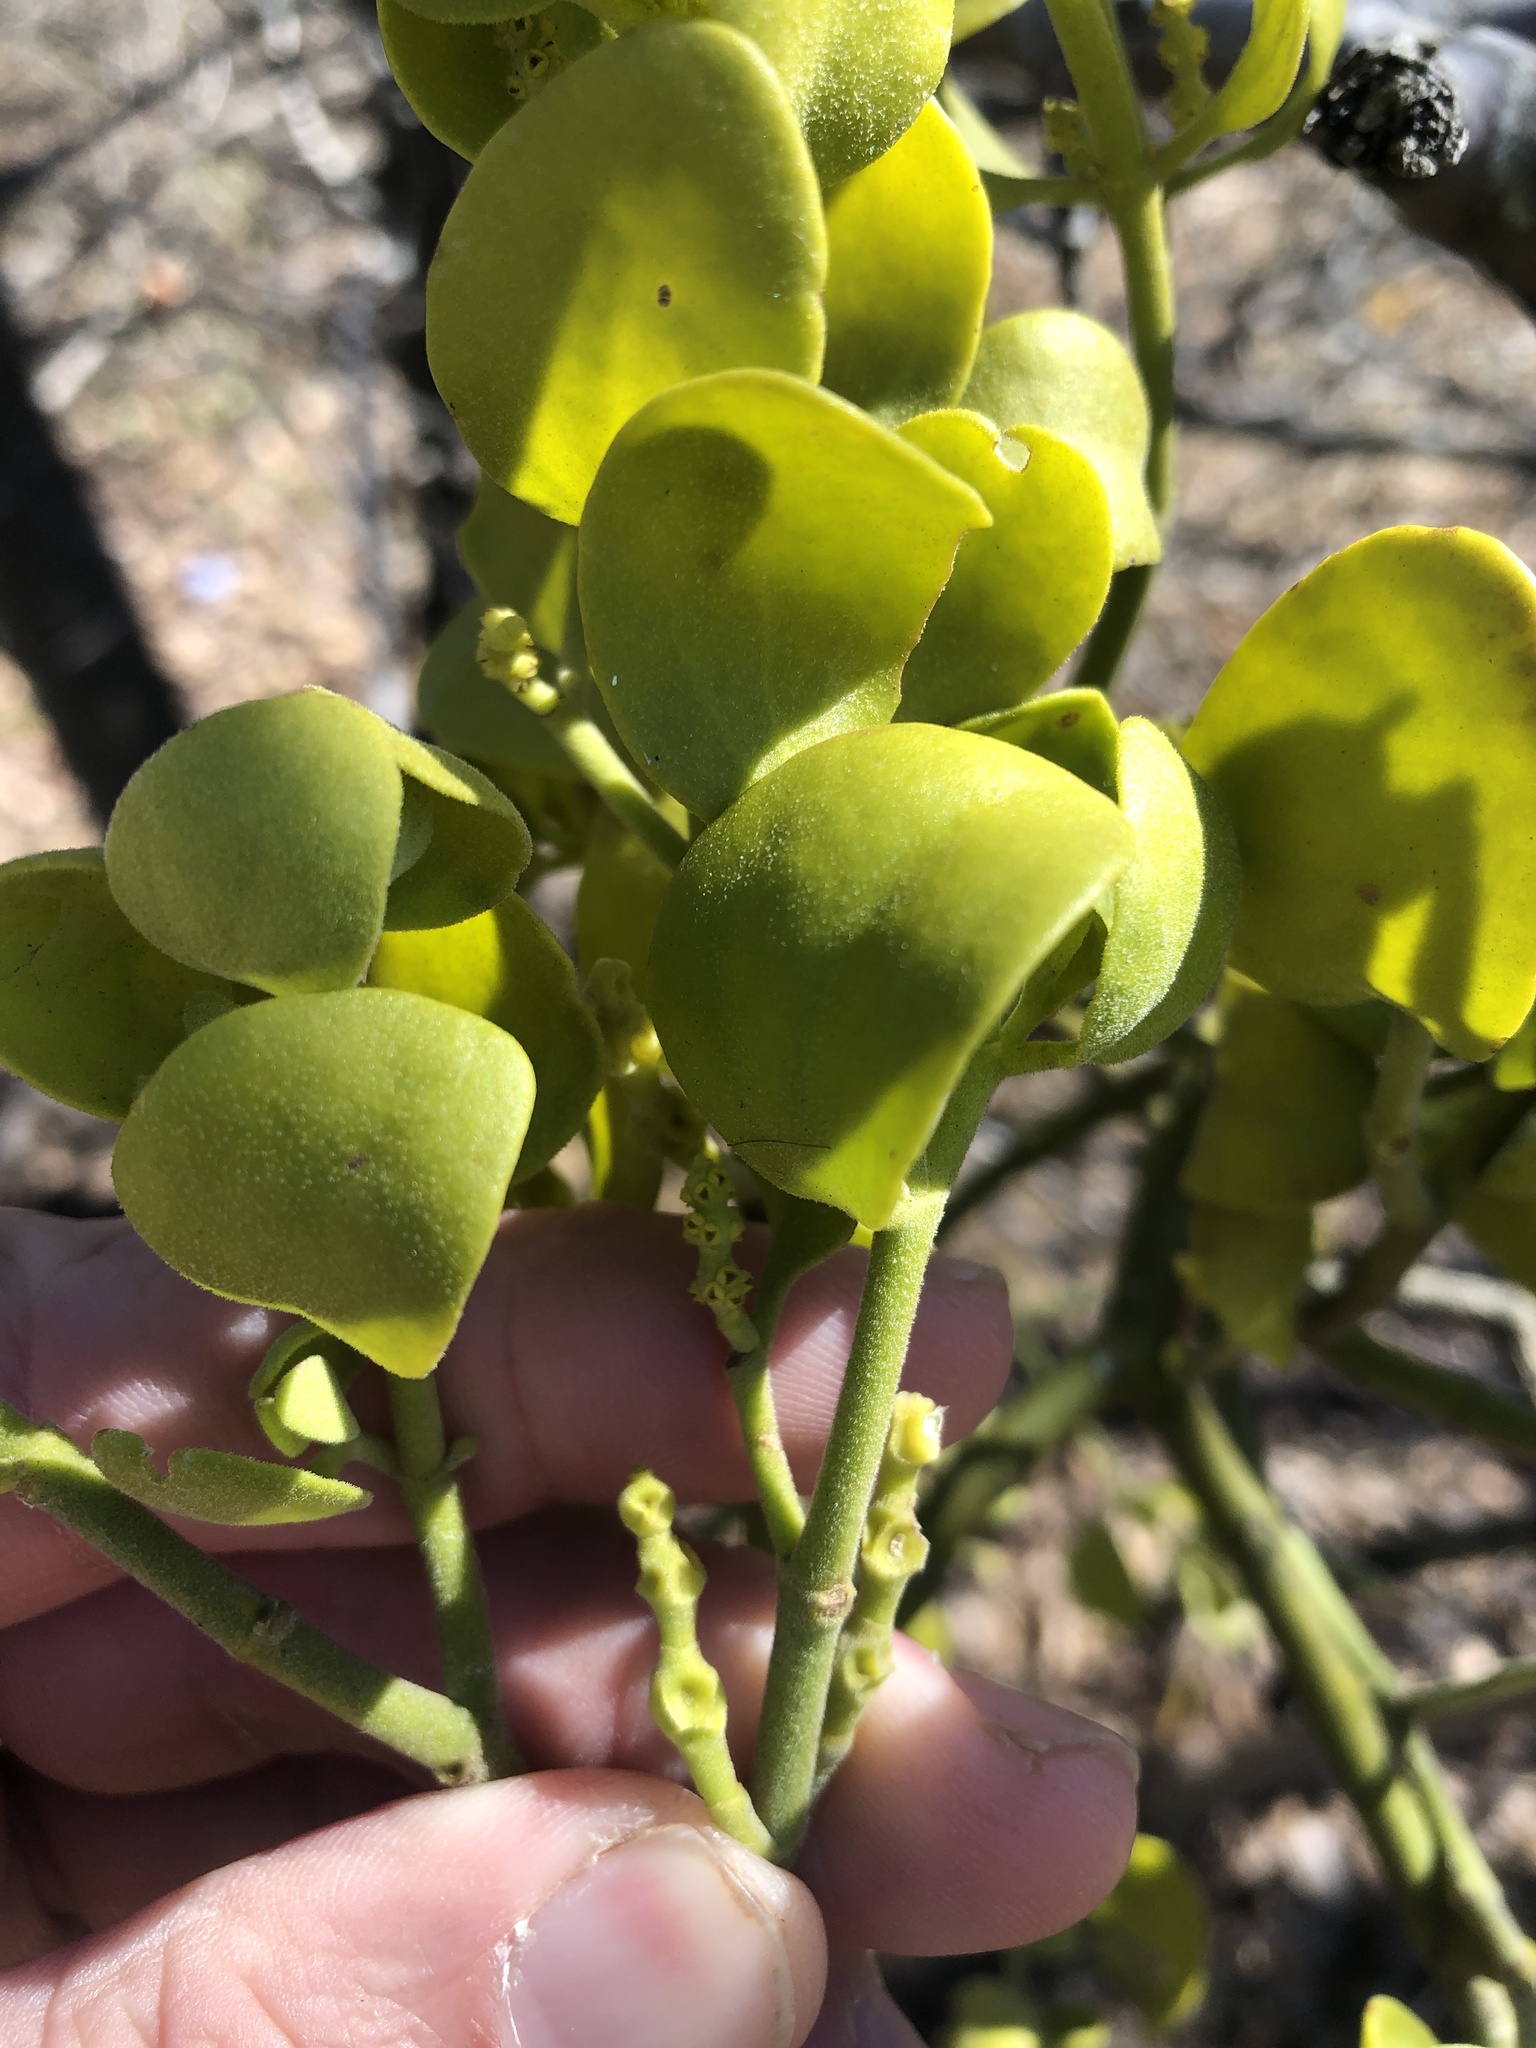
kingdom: Plantae
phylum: Tracheophyta
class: Magnoliopsida
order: Santalales
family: Viscaceae
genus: Phoradendron
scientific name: Phoradendron leucarpum
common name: Pacific mistletoe
